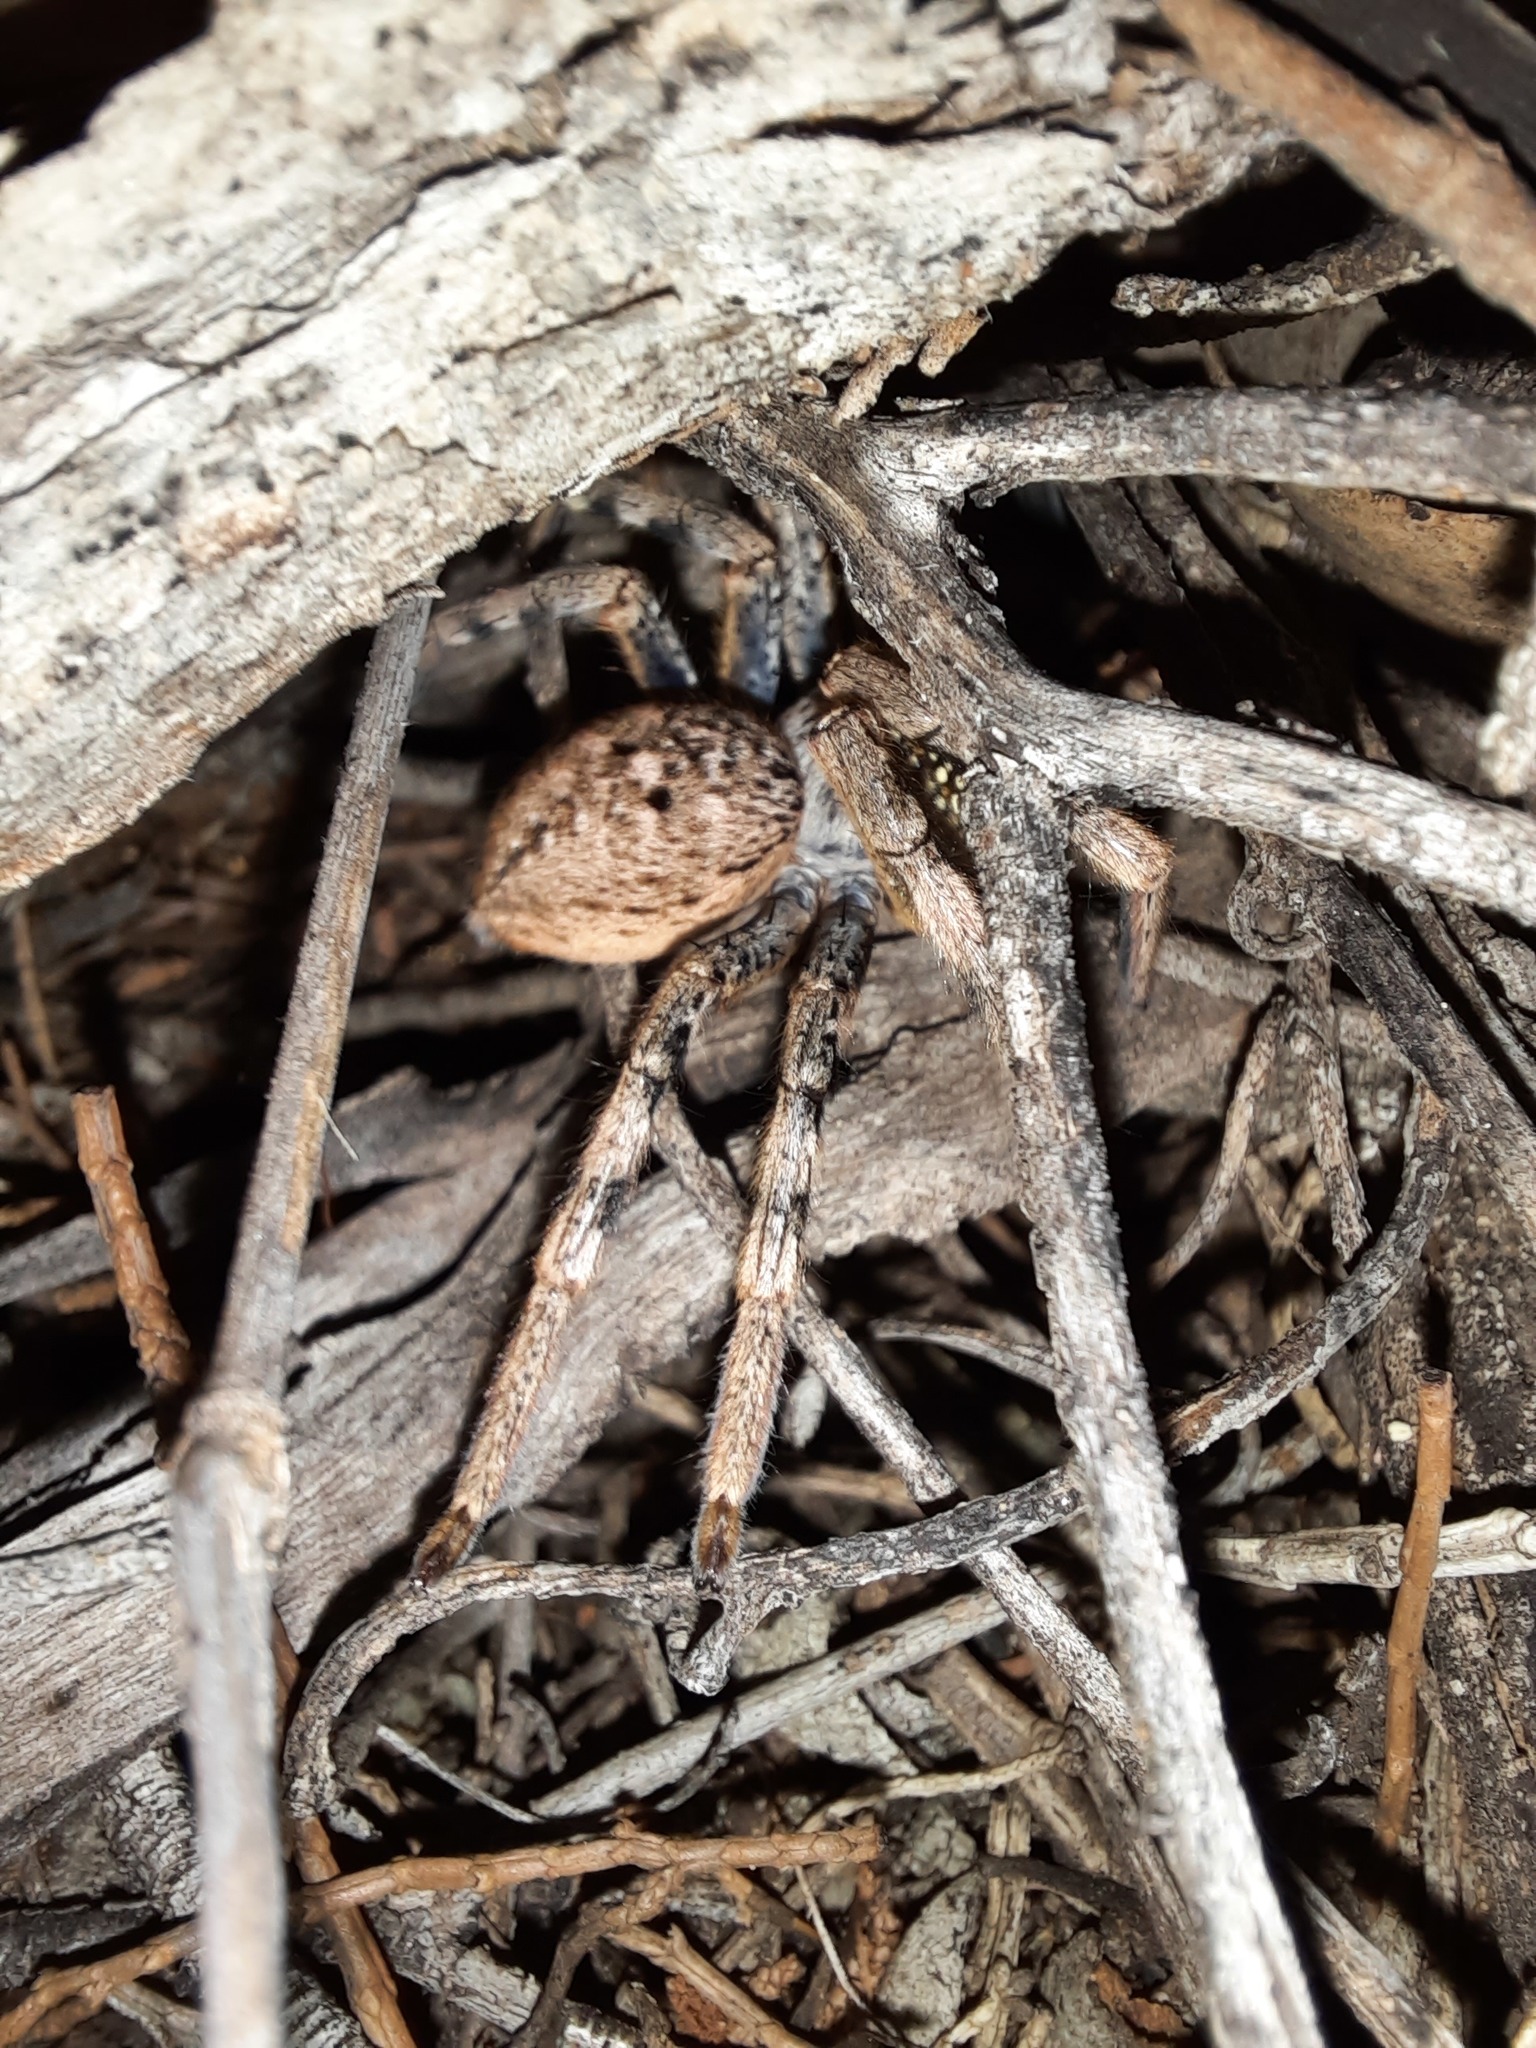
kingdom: Animalia
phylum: Arthropoda
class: Arachnida
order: Araneae
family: Sparassidae
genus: Neosparassus
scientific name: Neosparassus calligaster
